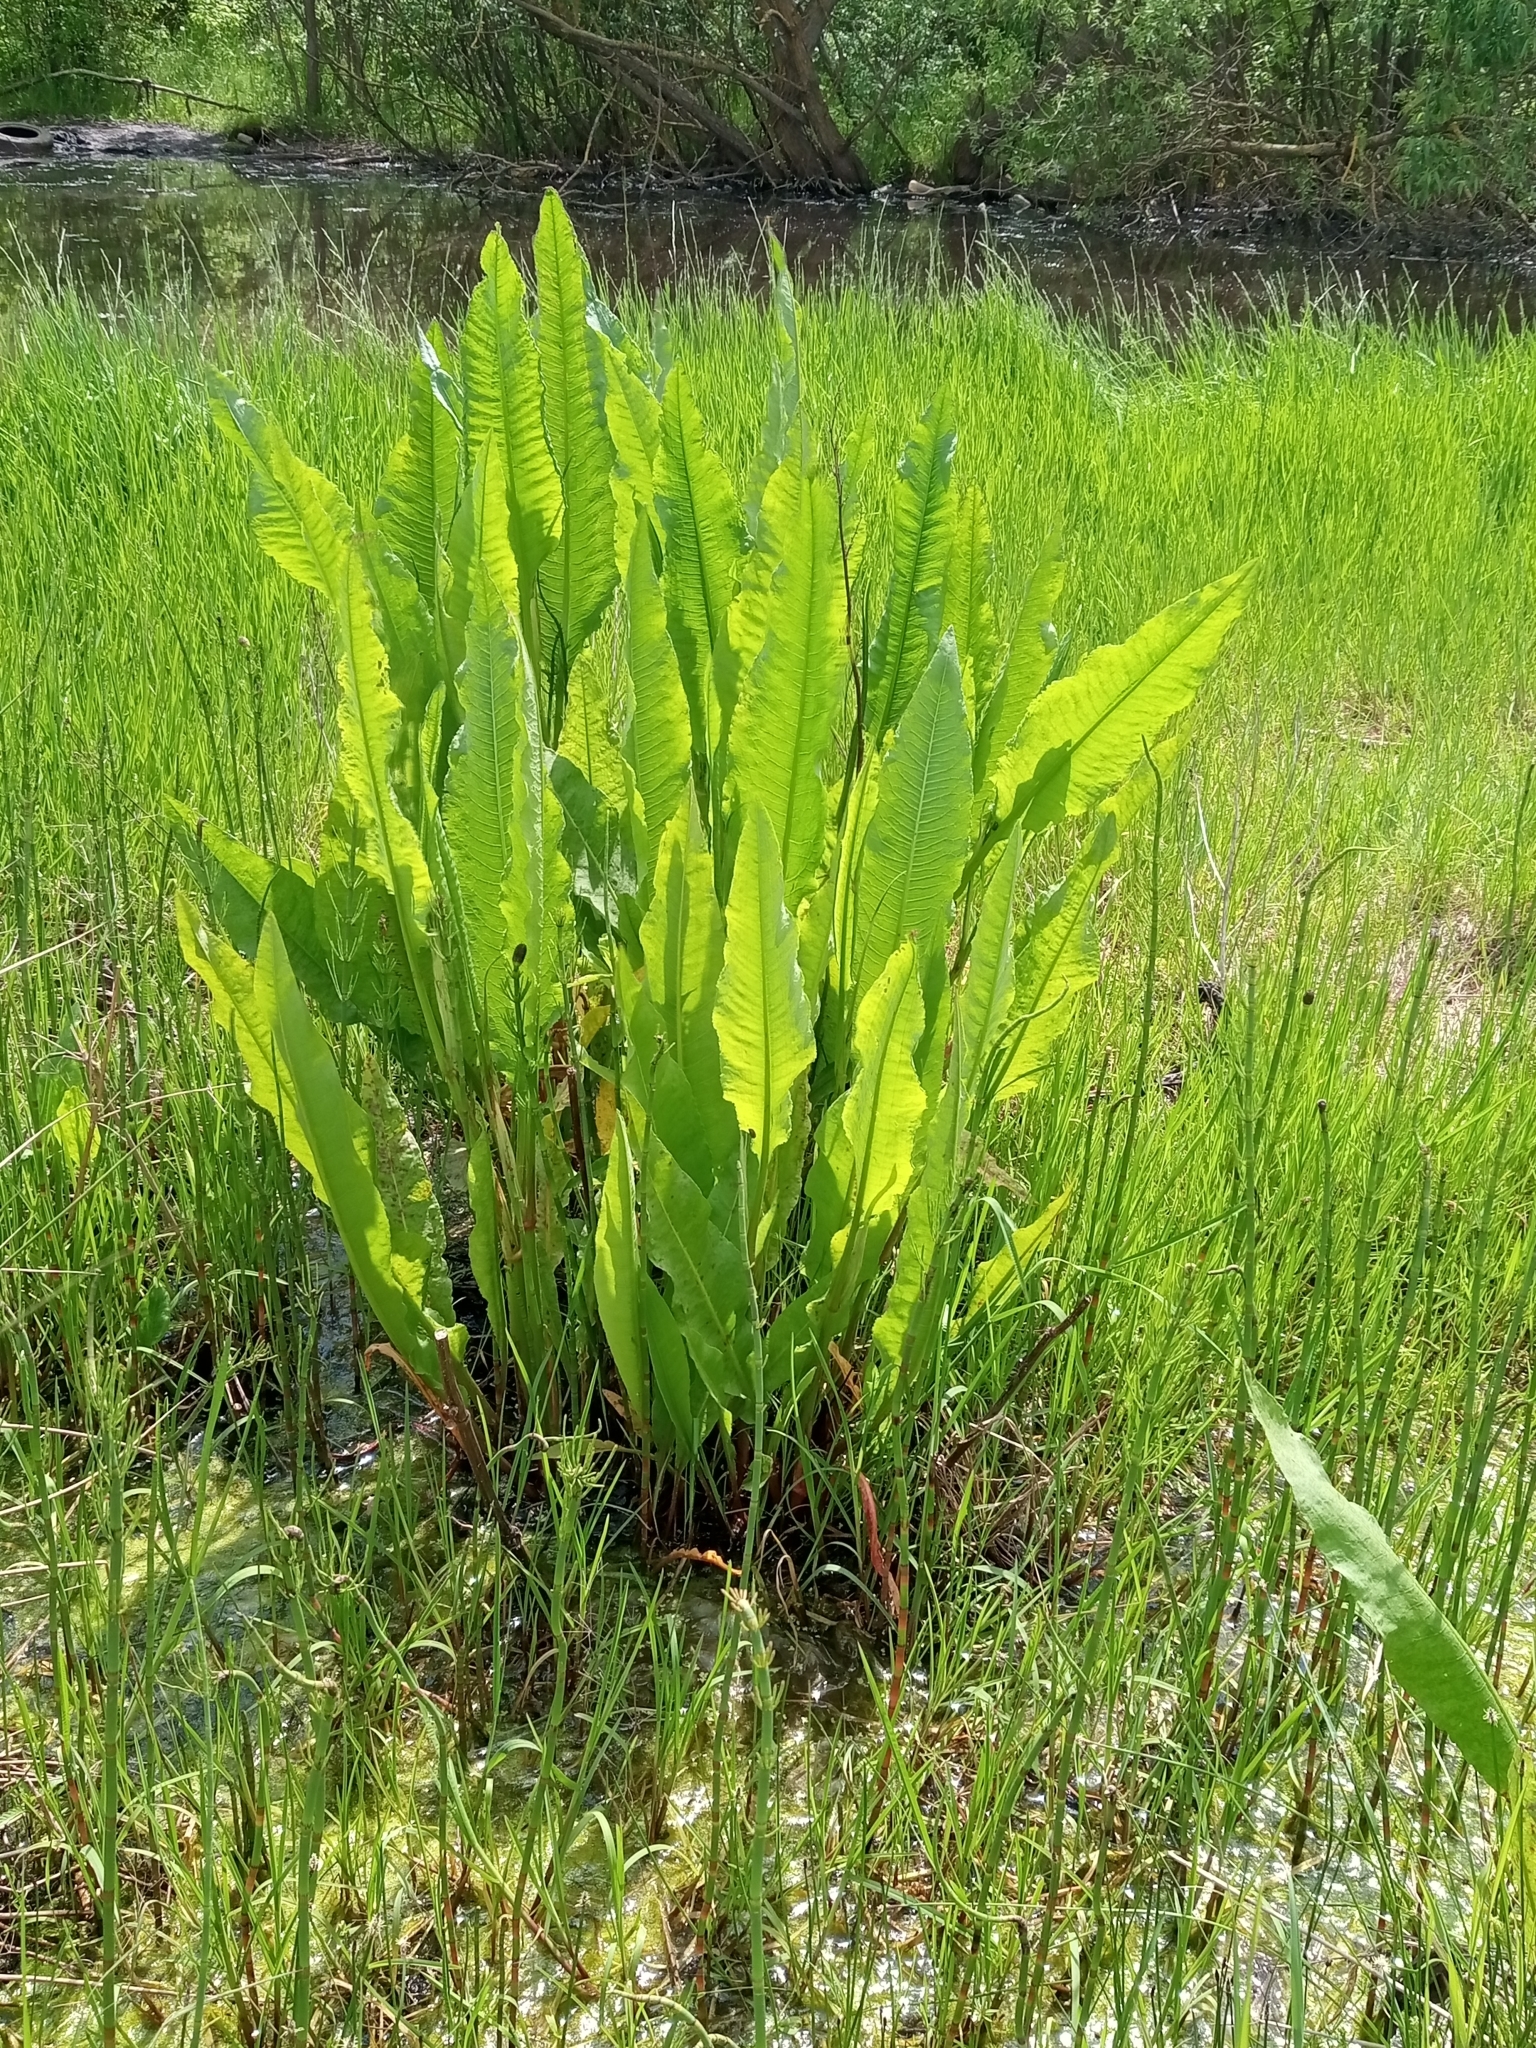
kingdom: Plantae
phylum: Tracheophyta
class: Magnoliopsida
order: Caryophyllales
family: Polygonaceae
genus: Rumex
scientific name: Rumex hydrolapathum
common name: Water dock
